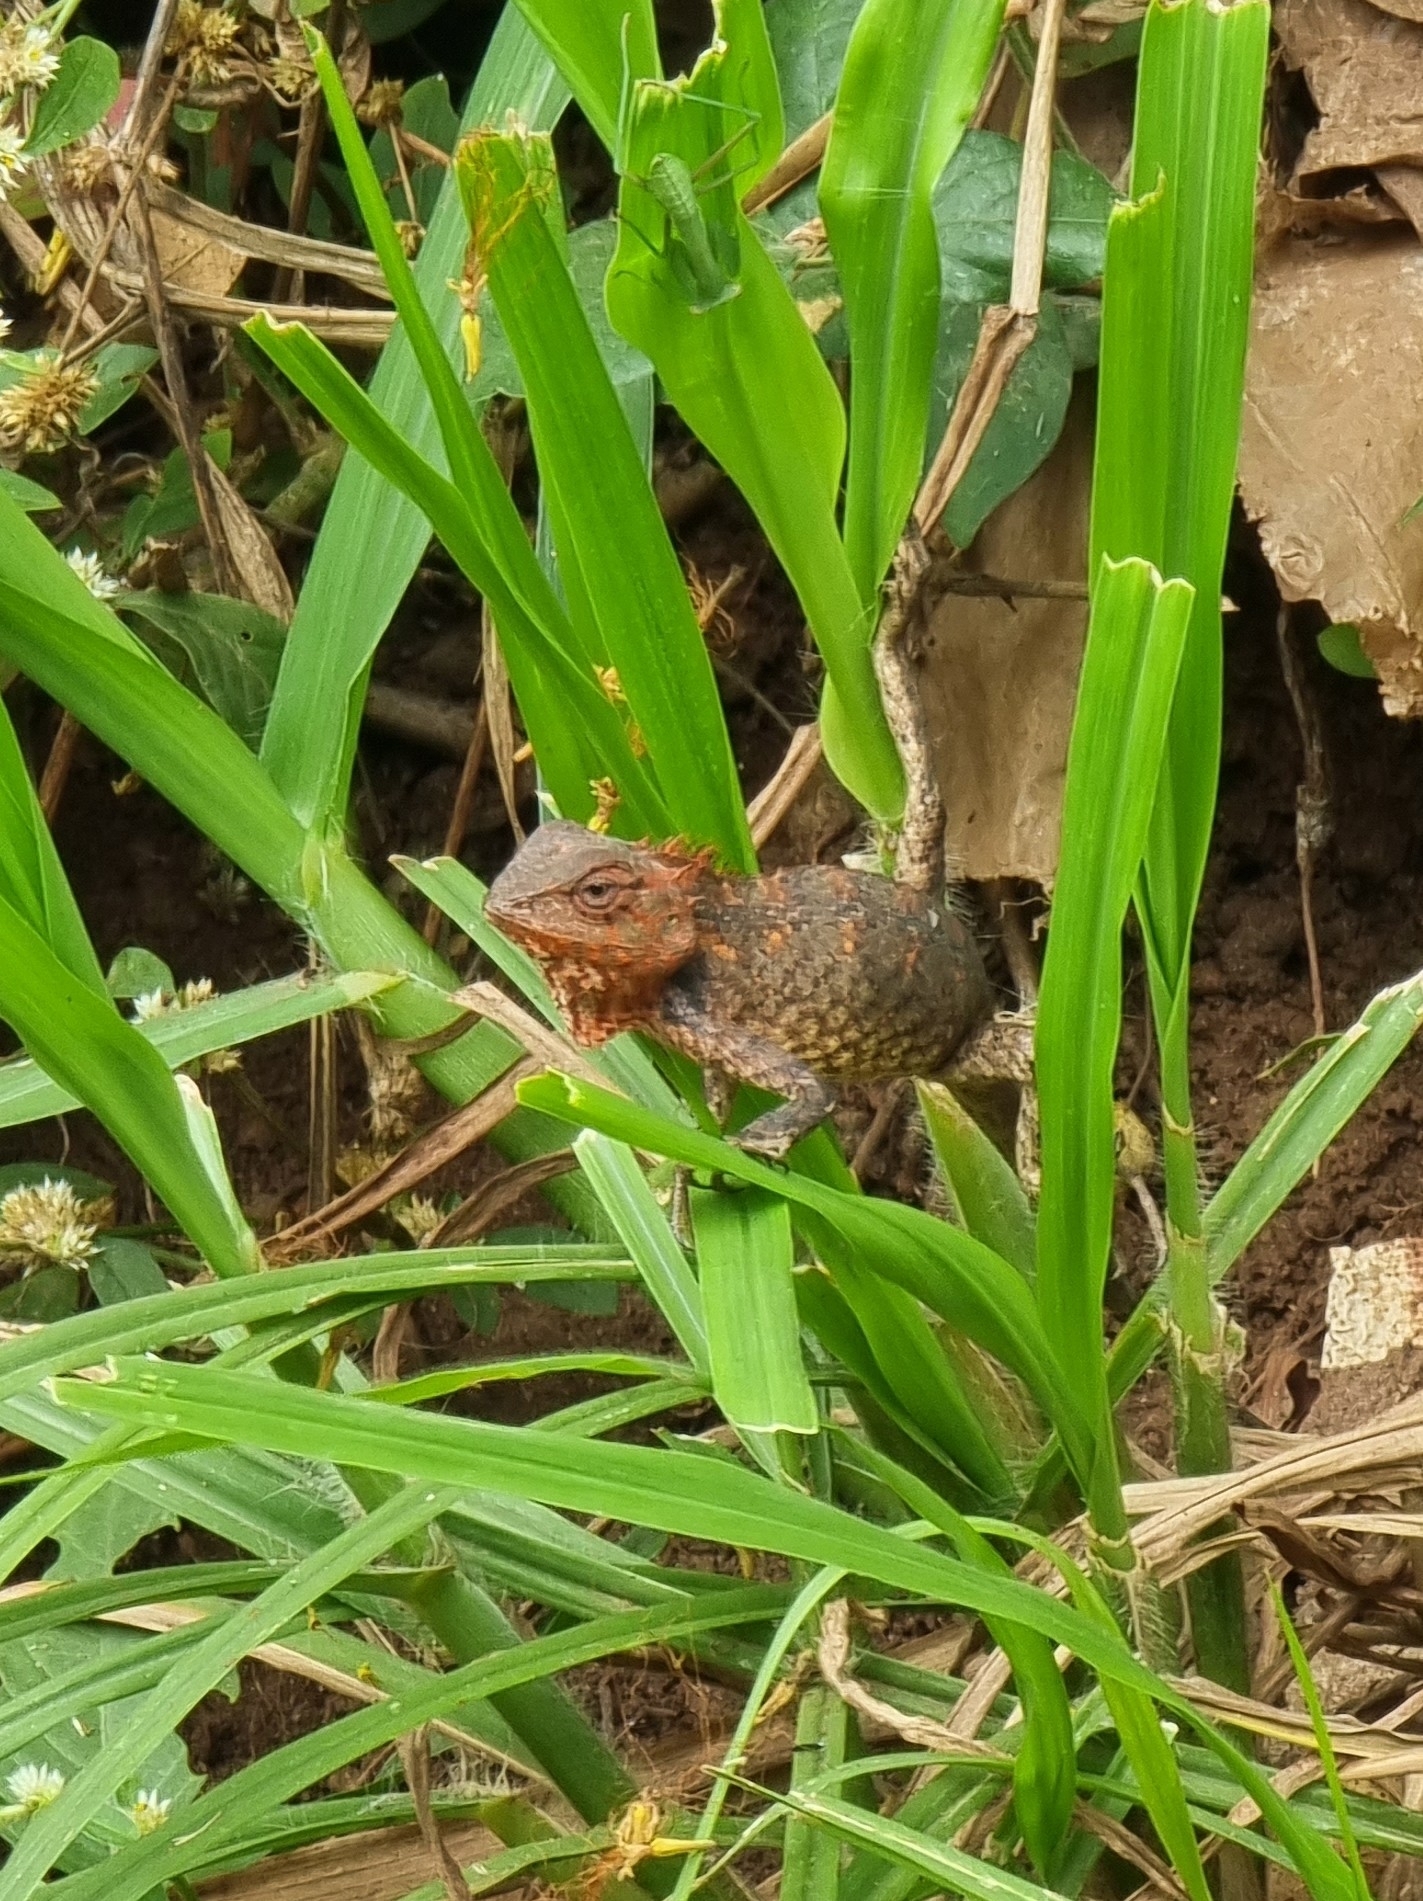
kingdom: Animalia
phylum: Chordata
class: Squamata
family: Agamidae
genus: Calotes
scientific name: Calotes versicolor
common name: Oriental garden lizard
